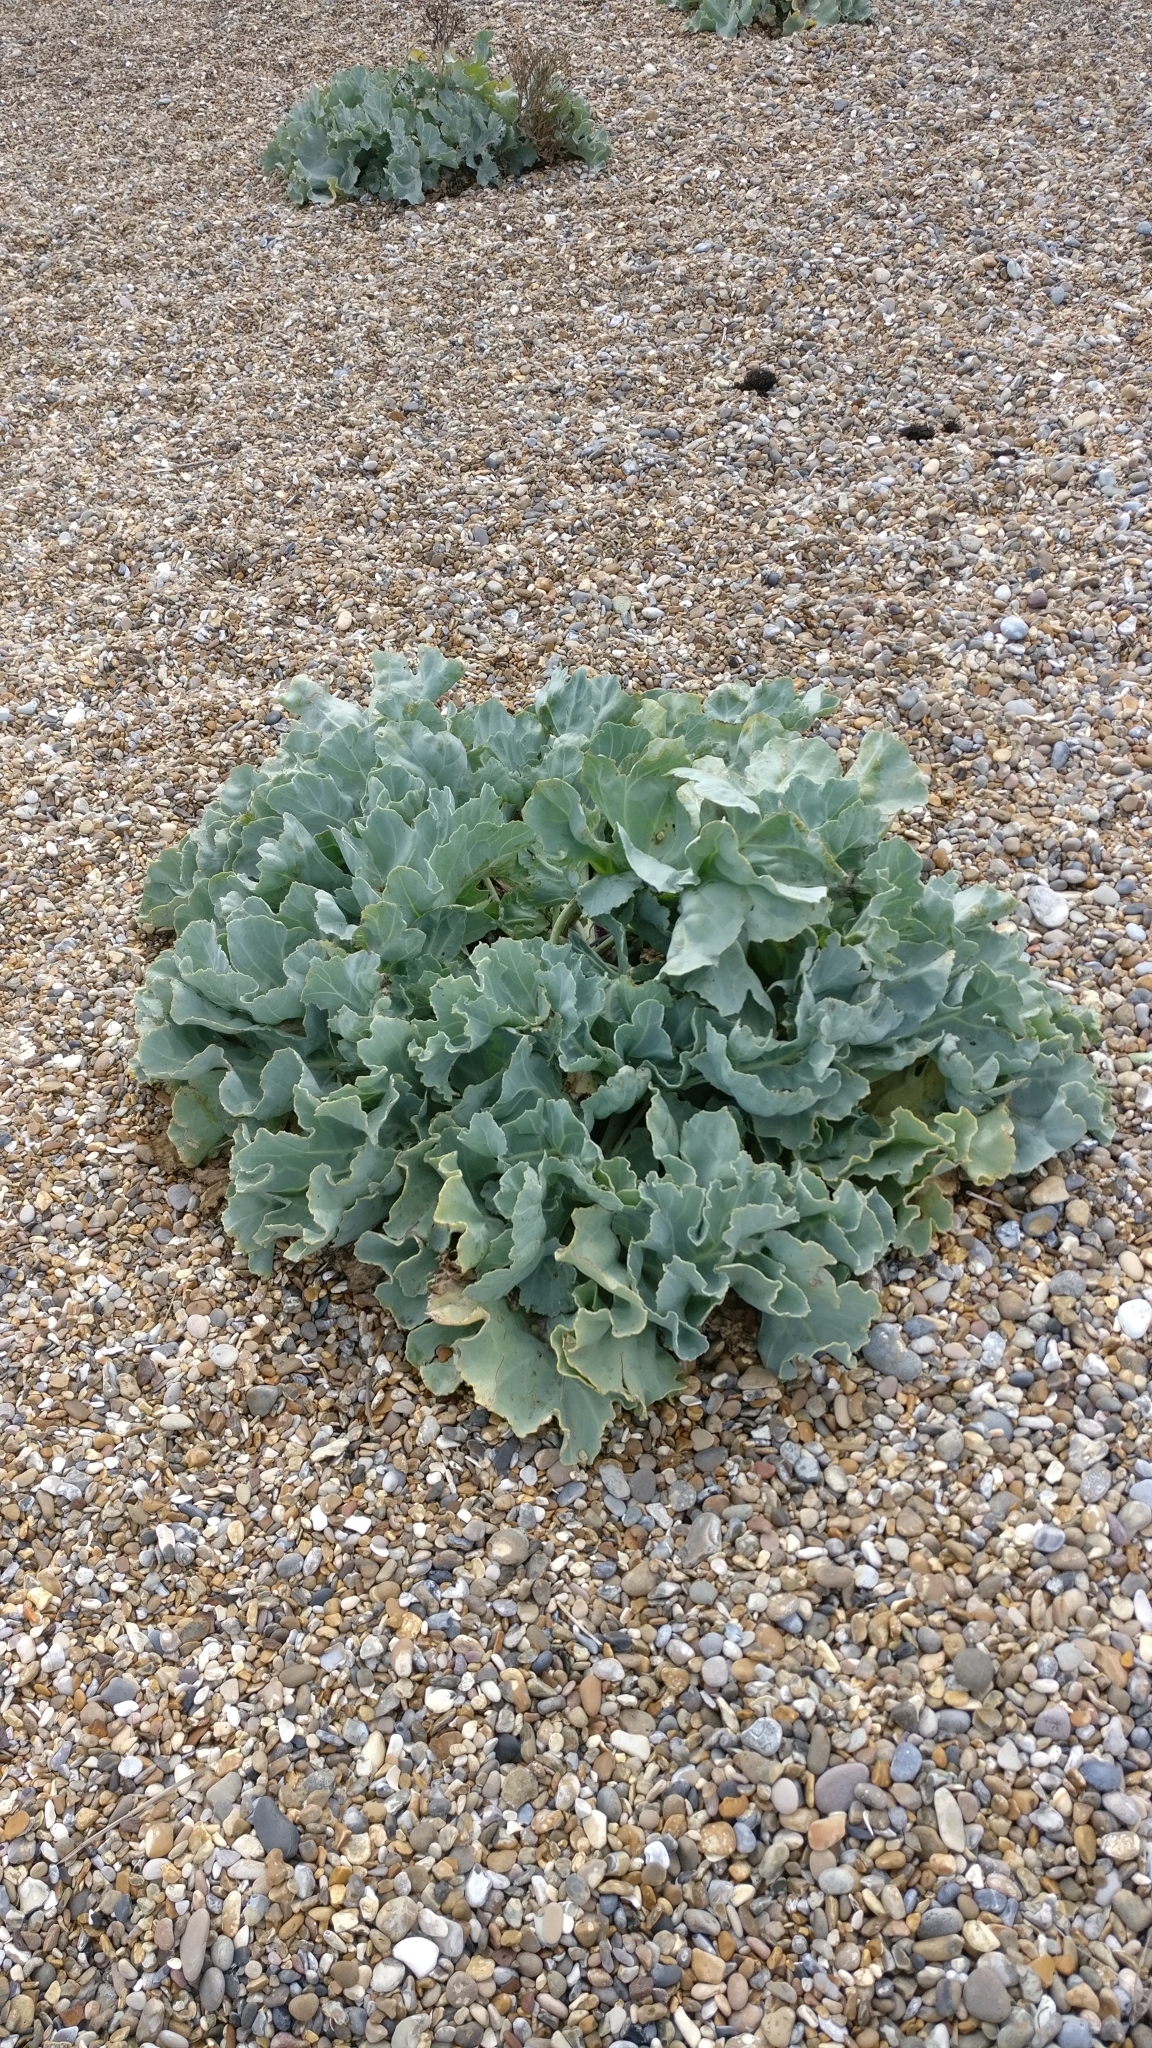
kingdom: Plantae
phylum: Tracheophyta
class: Magnoliopsida
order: Brassicales
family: Brassicaceae
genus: Crambe
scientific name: Crambe maritima
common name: Sea-kale
